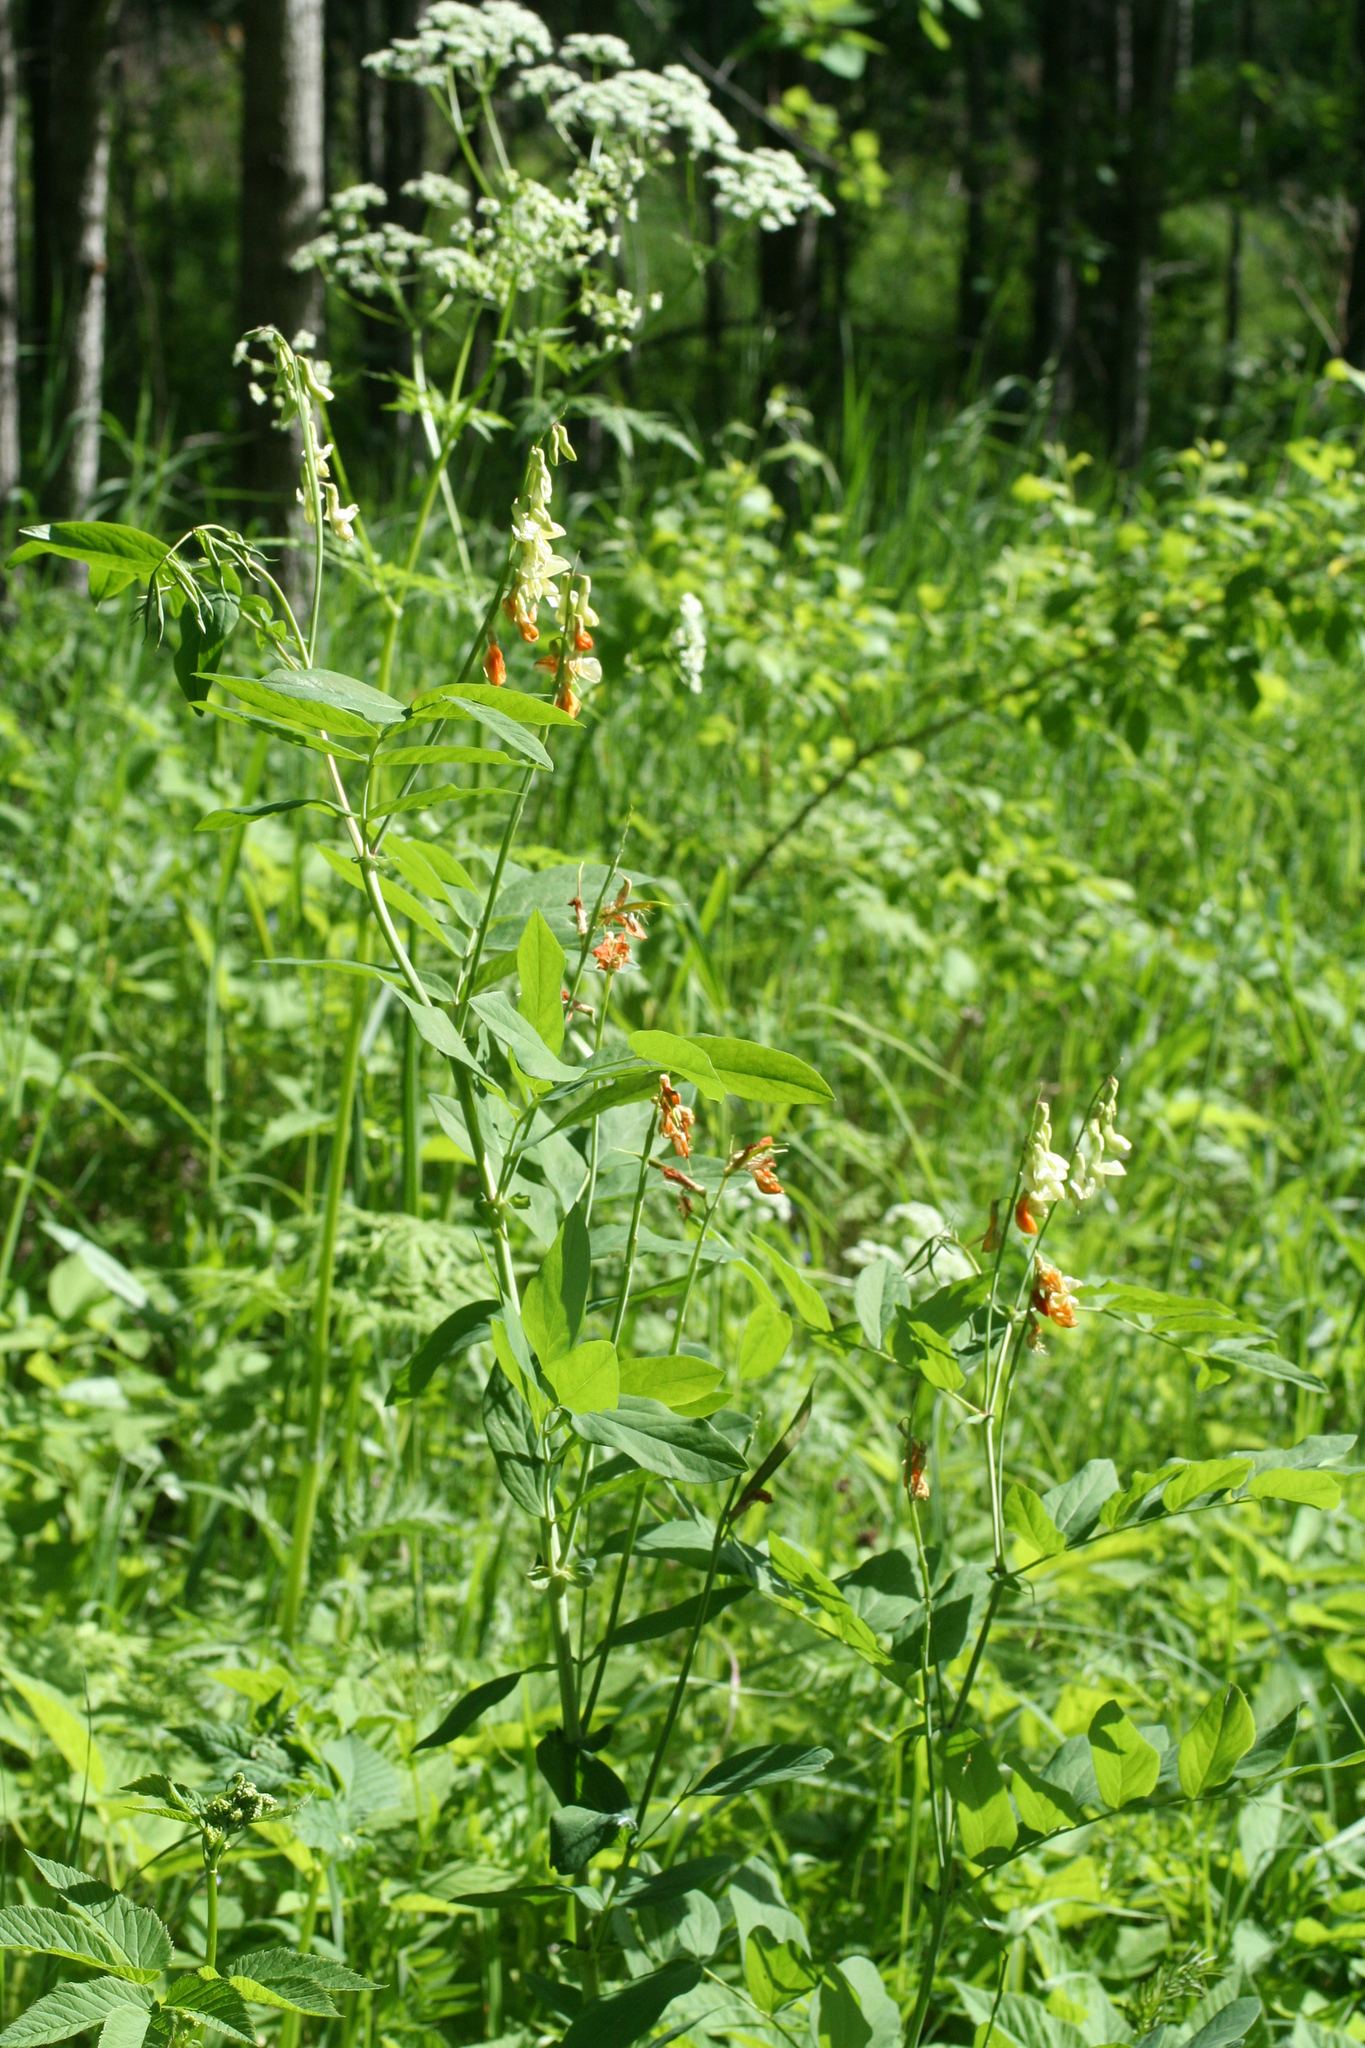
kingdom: Plantae
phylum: Tracheophyta
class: Magnoliopsida
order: Fabales
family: Fabaceae
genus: Lathyrus
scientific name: Lathyrus gmelinii
